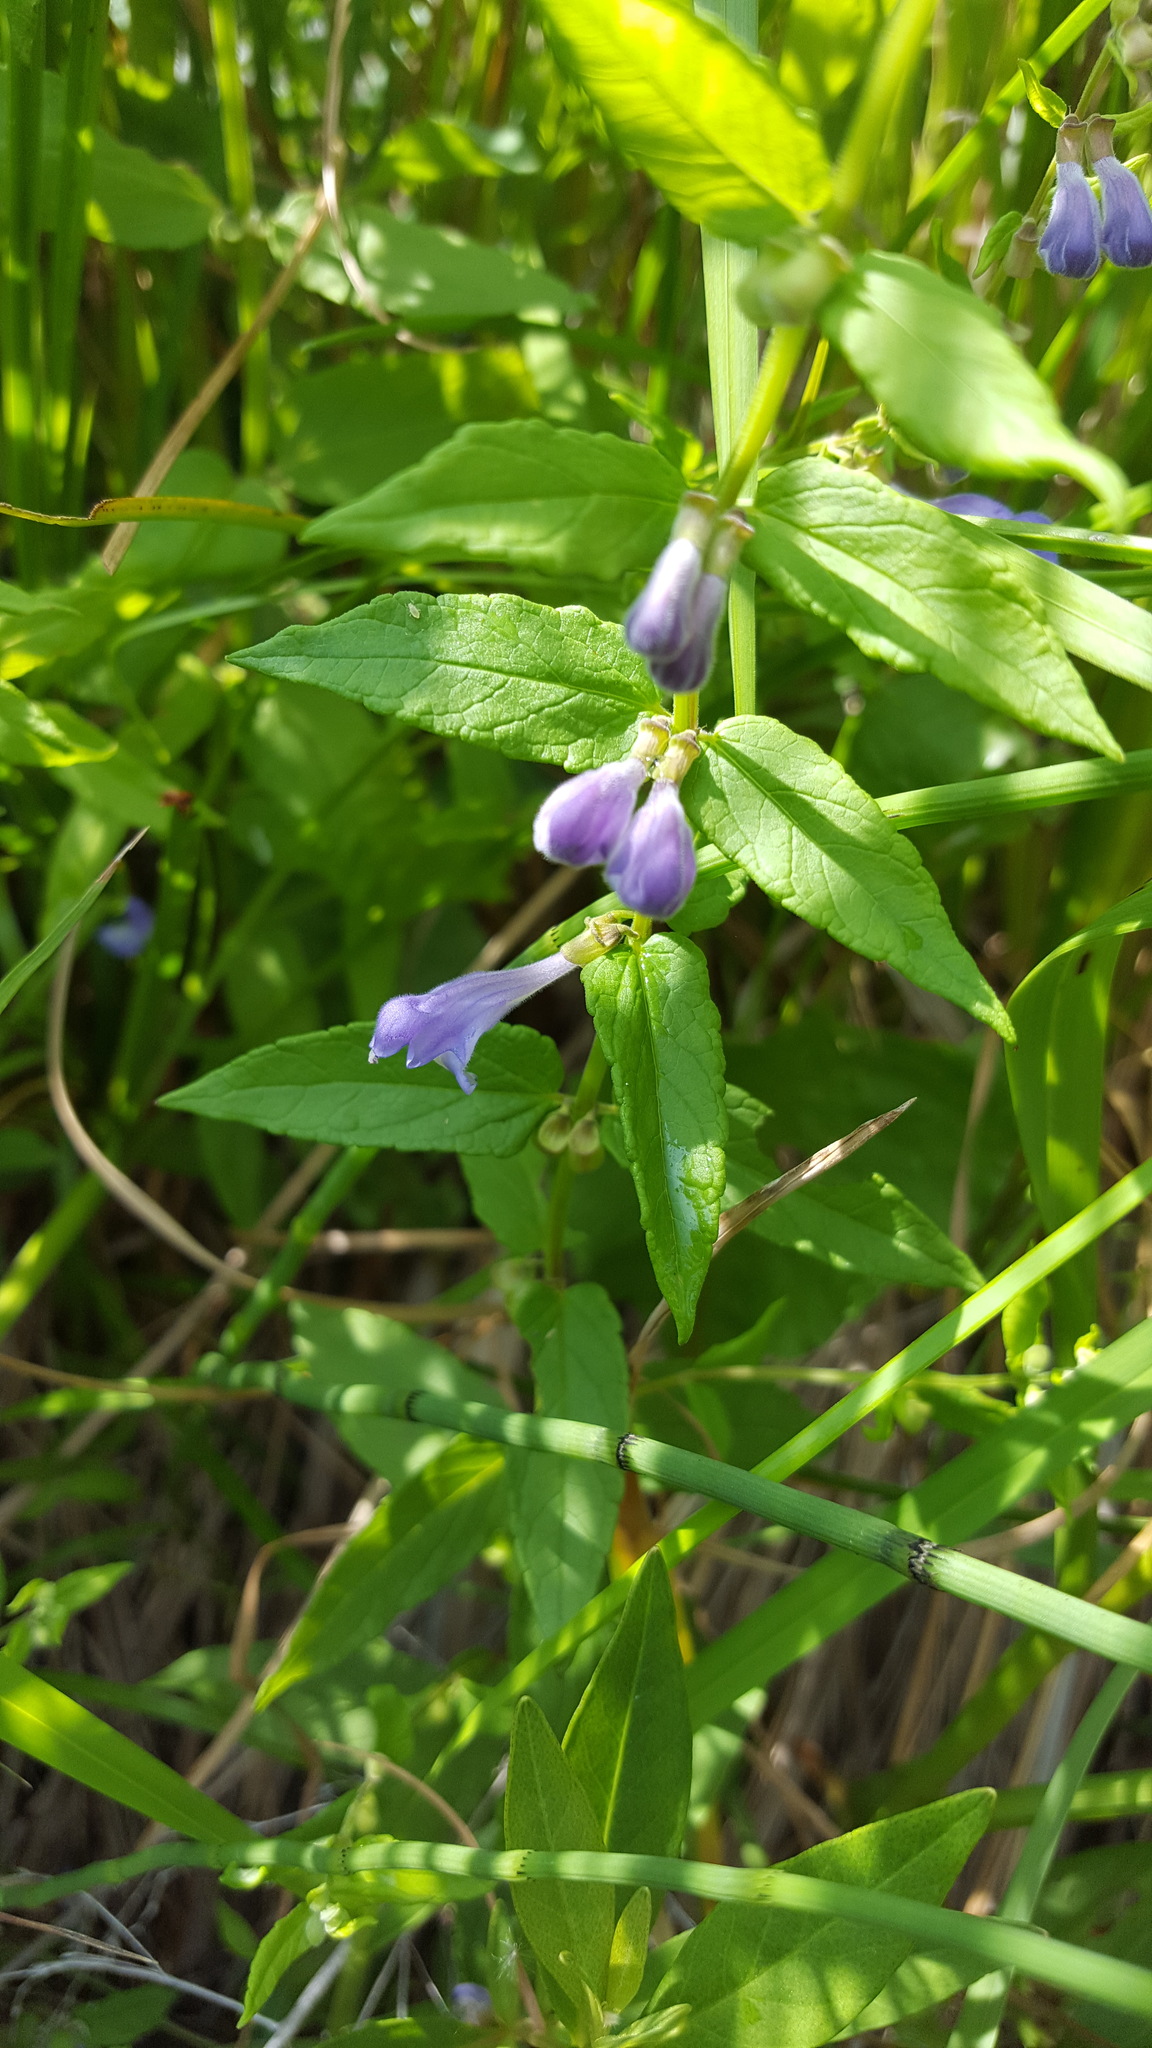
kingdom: Plantae
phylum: Tracheophyta
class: Magnoliopsida
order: Lamiales
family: Lamiaceae
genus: Scutellaria
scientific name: Scutellaria galericulata
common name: Skullcap
